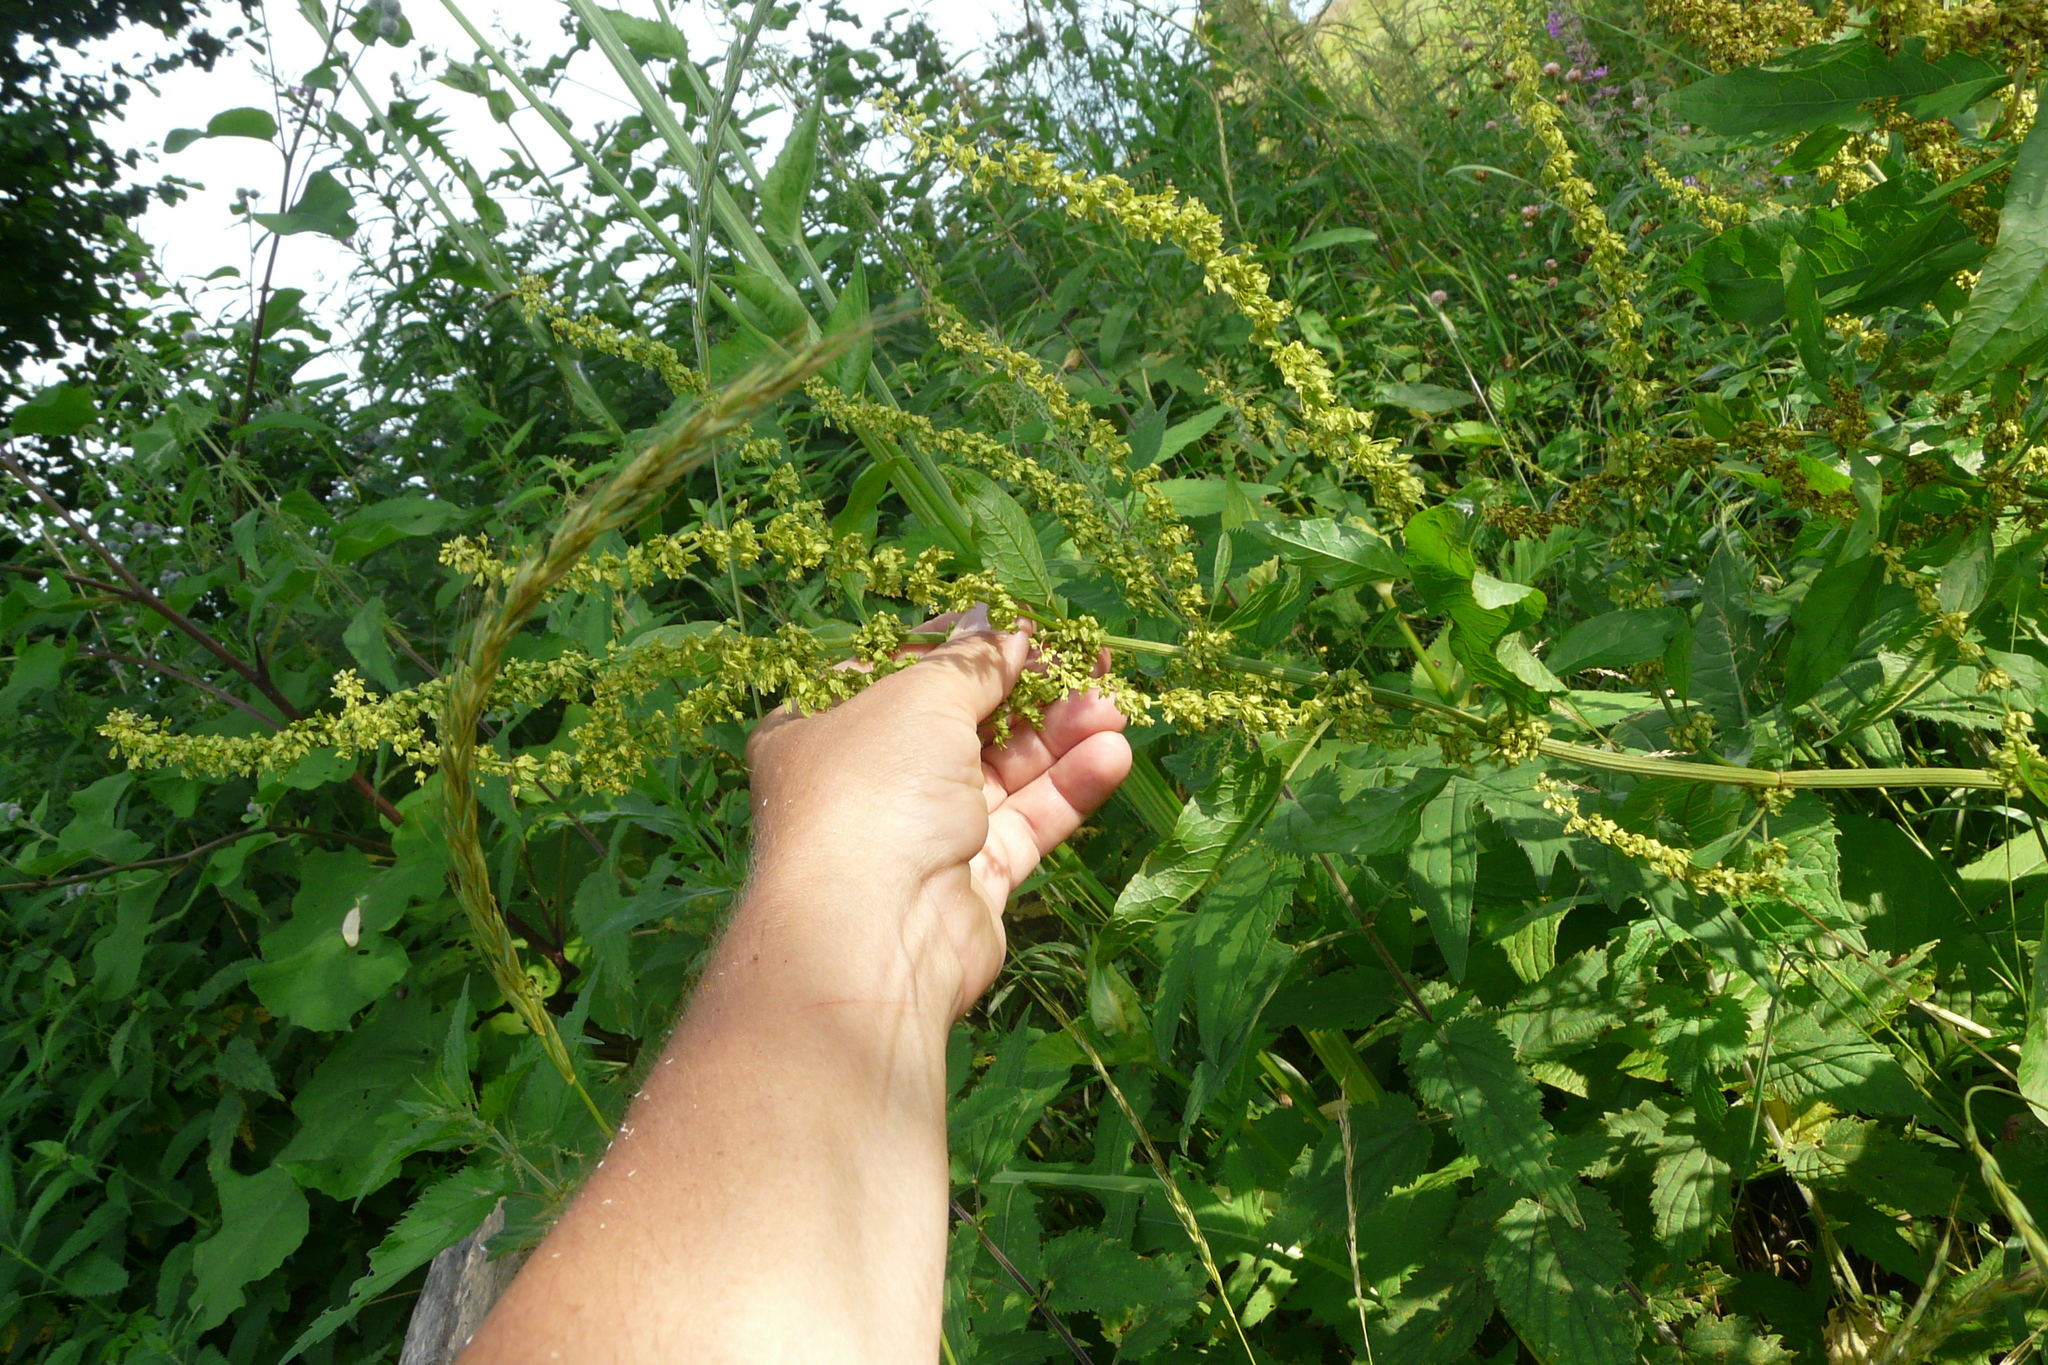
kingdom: Plantae
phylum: Tracheophyta
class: Magnoliopsida
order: Caryophyllales
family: Polygonaceae
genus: Rumex
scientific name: Rumex aquaticus
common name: Scottish dock
